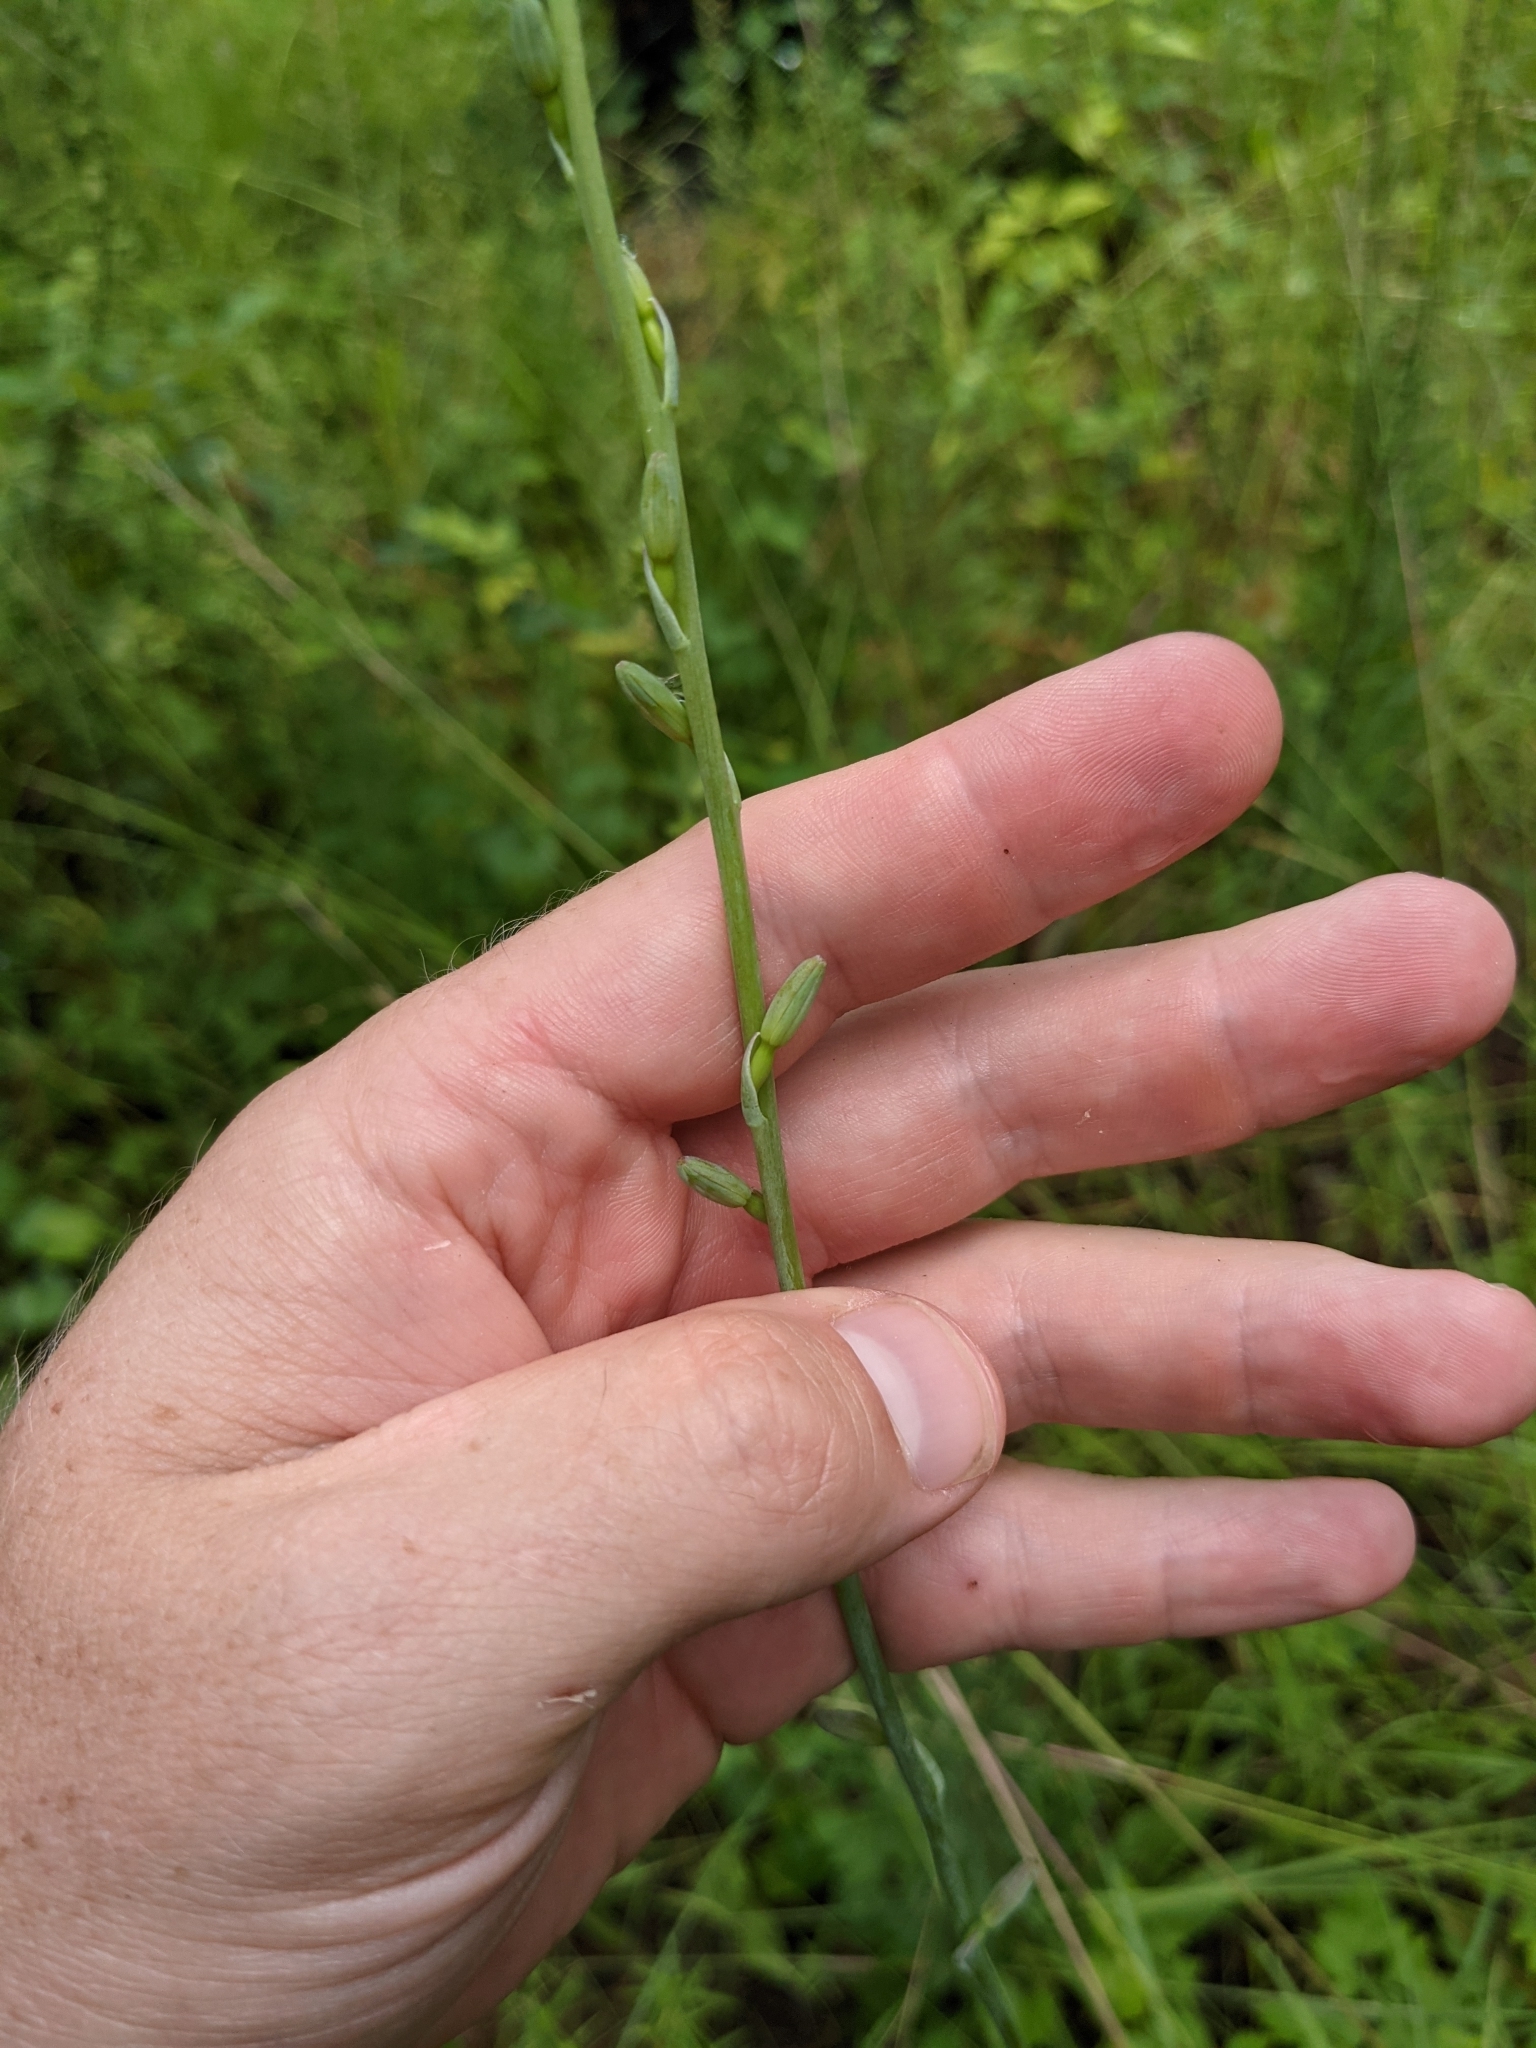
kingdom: Plantae
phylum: Tracheophyta
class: Liliopsida
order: Asparagales
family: Asparagaceae
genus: Agave
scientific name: Agave virginica
